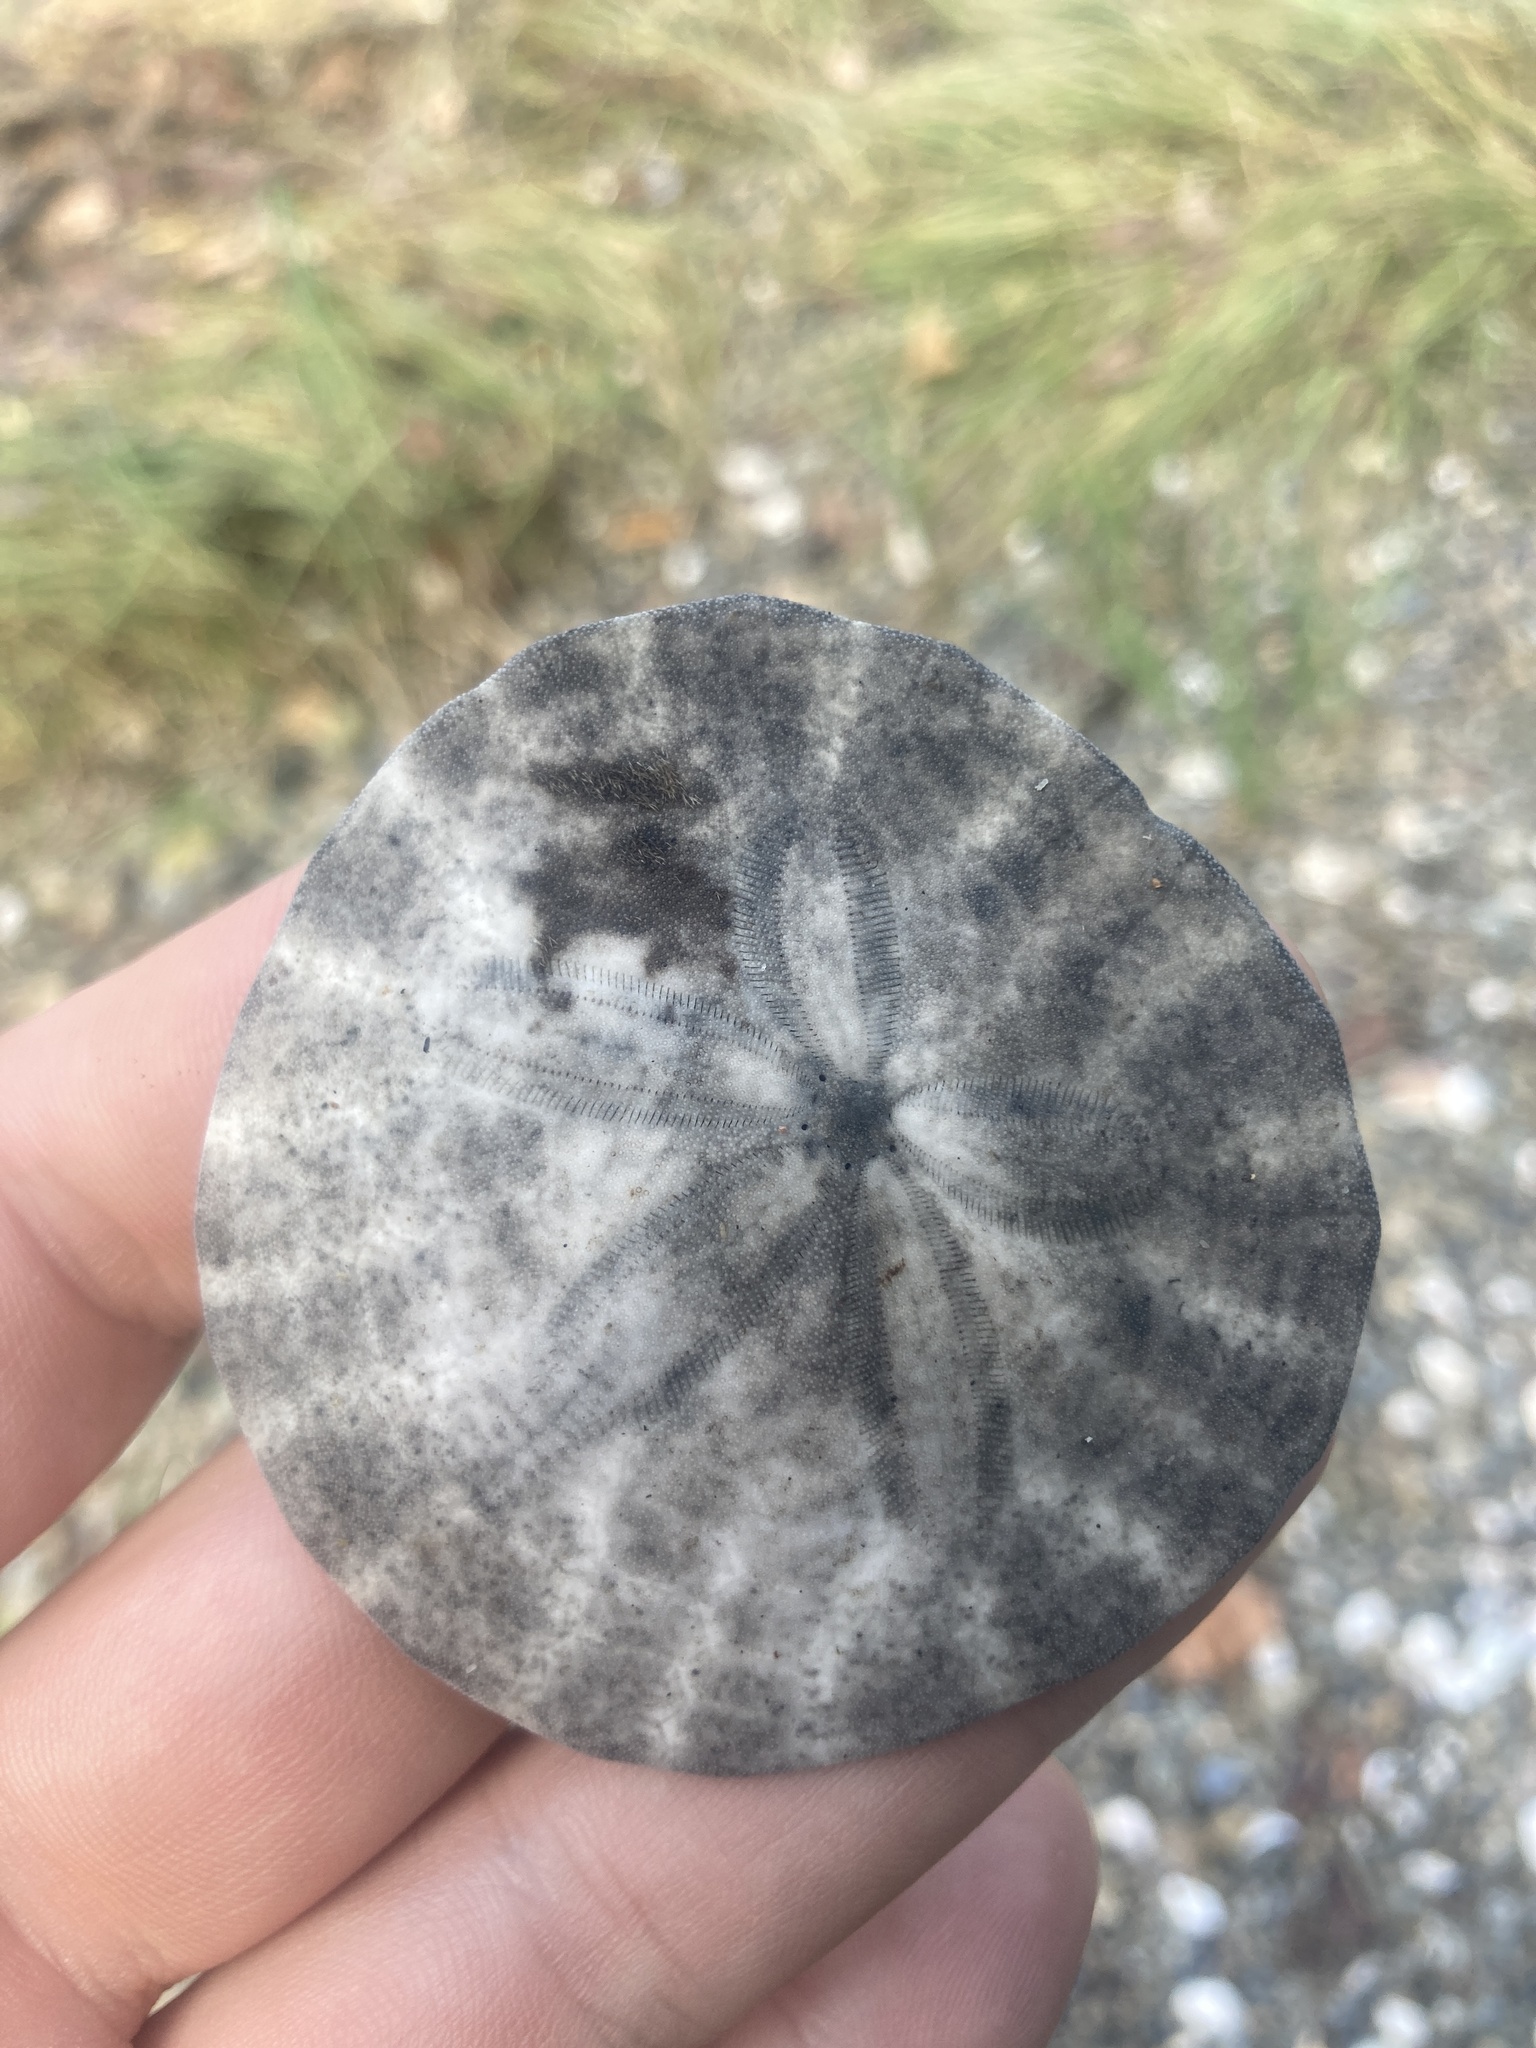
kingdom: Animalia
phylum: Echinodermata
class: Echinoidea
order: Echinolampadacea
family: Dendrasteridae
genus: Dendraster
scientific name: Dendraster excentricus
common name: Eccentric sand dollar sea urchin
